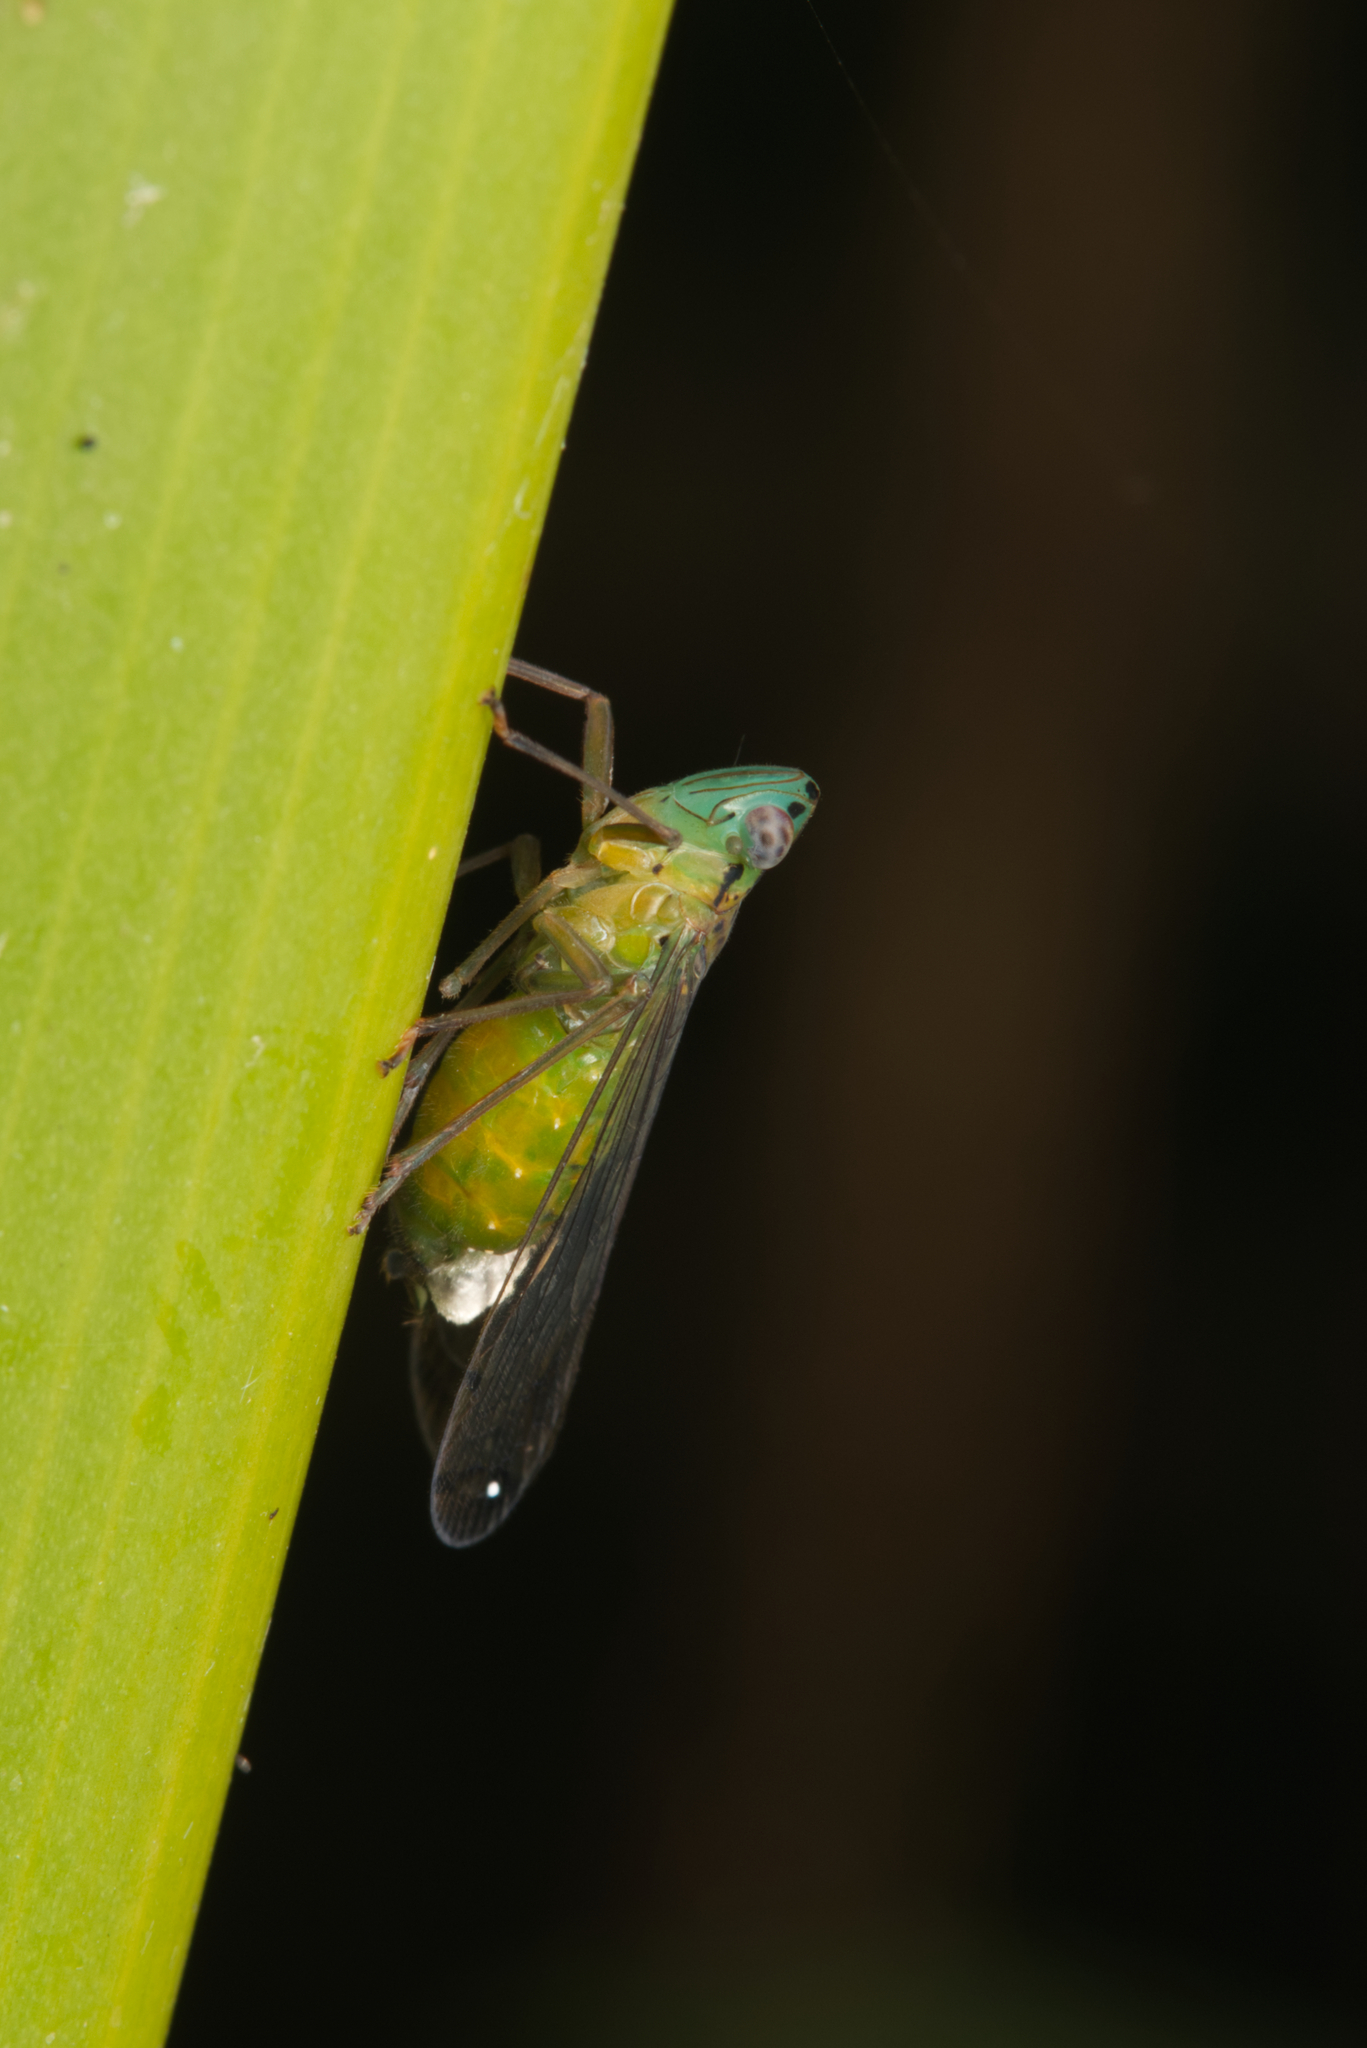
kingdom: Animalia
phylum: Arthropoda
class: Insecta
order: Hemiptera
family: Lophopidae
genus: Magia
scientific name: Magia subocellata
